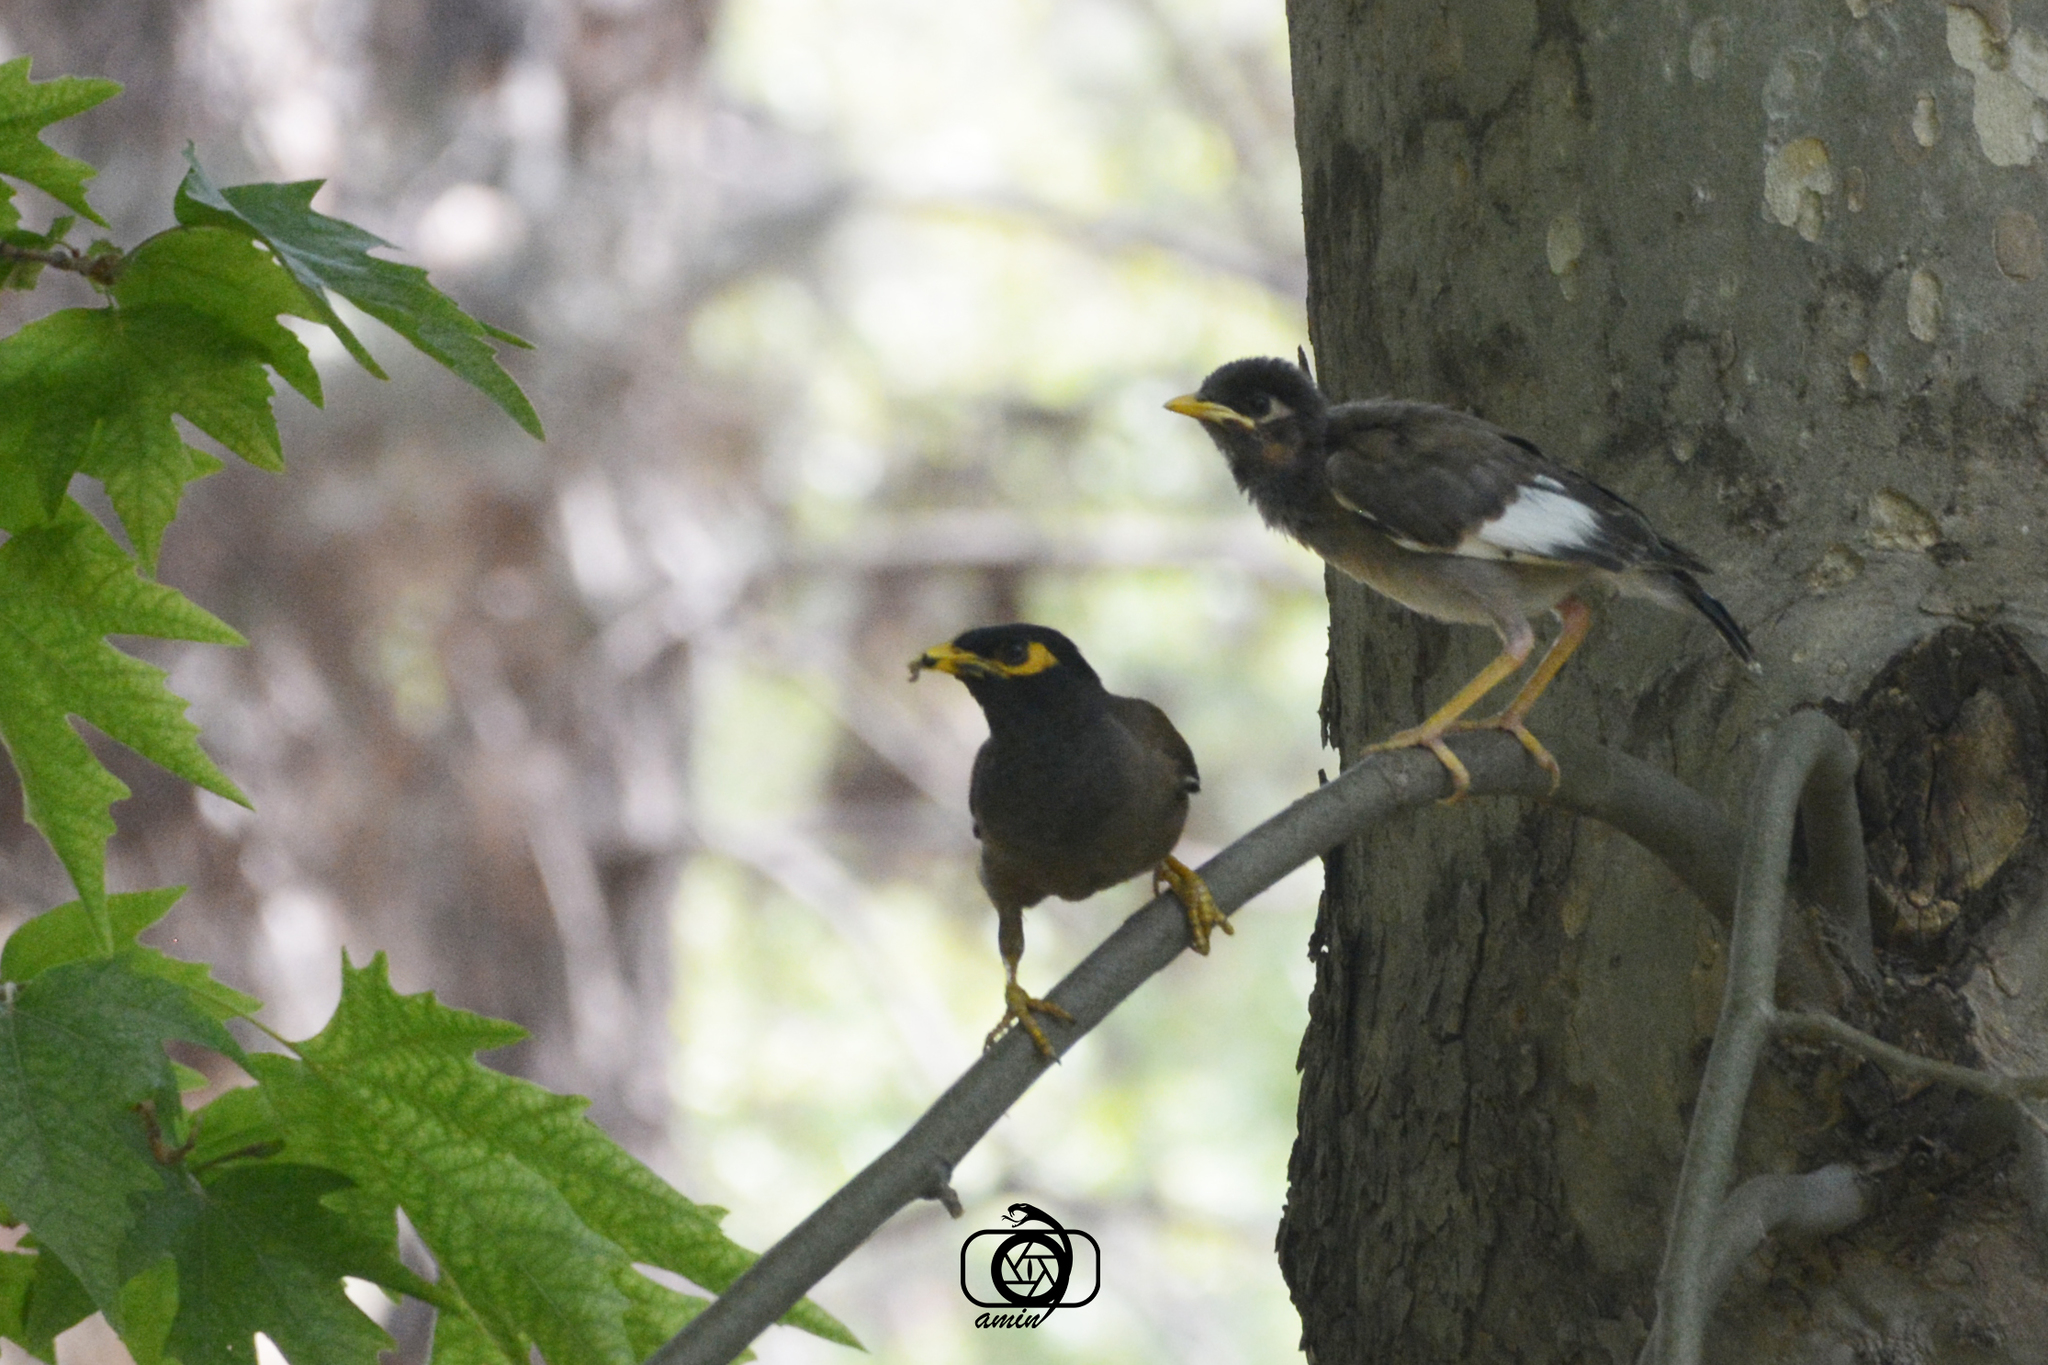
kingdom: Animalia
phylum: Chordata
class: Aves
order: Passeriformes
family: Sturnidae
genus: Acridotheres
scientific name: Acridotheres tristis
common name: Common myna
